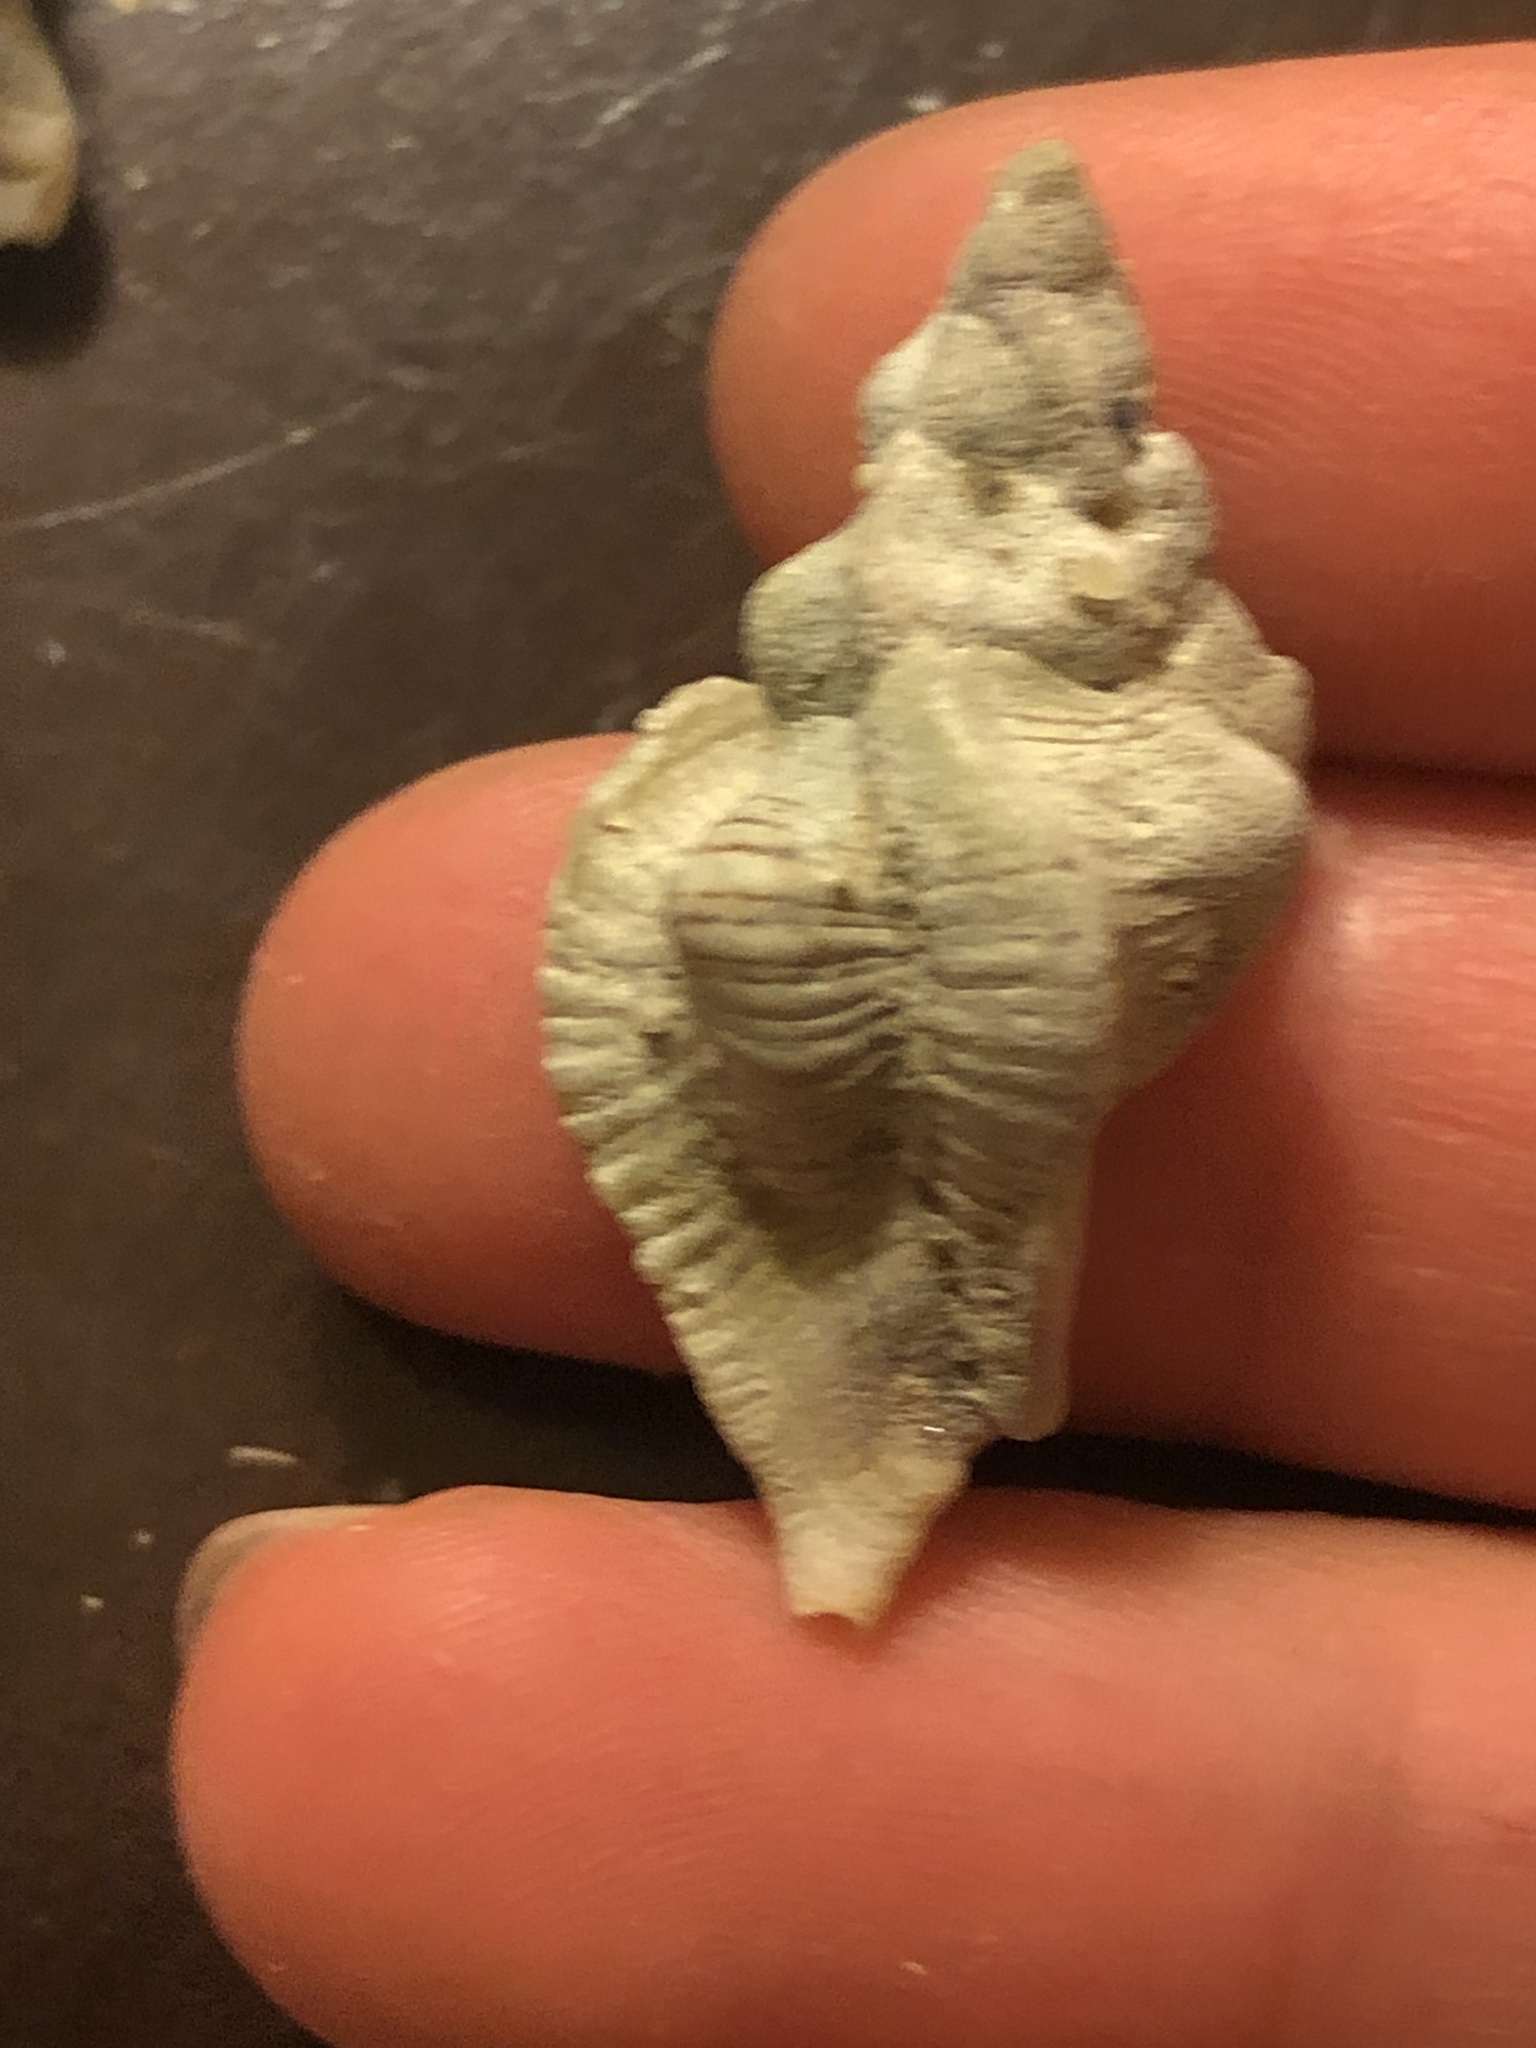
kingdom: Animalia
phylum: Mollusca
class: Gastropoda
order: Neogastropoda
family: Muricidae
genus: Pteropurpura
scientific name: Pteropurpura festiva
